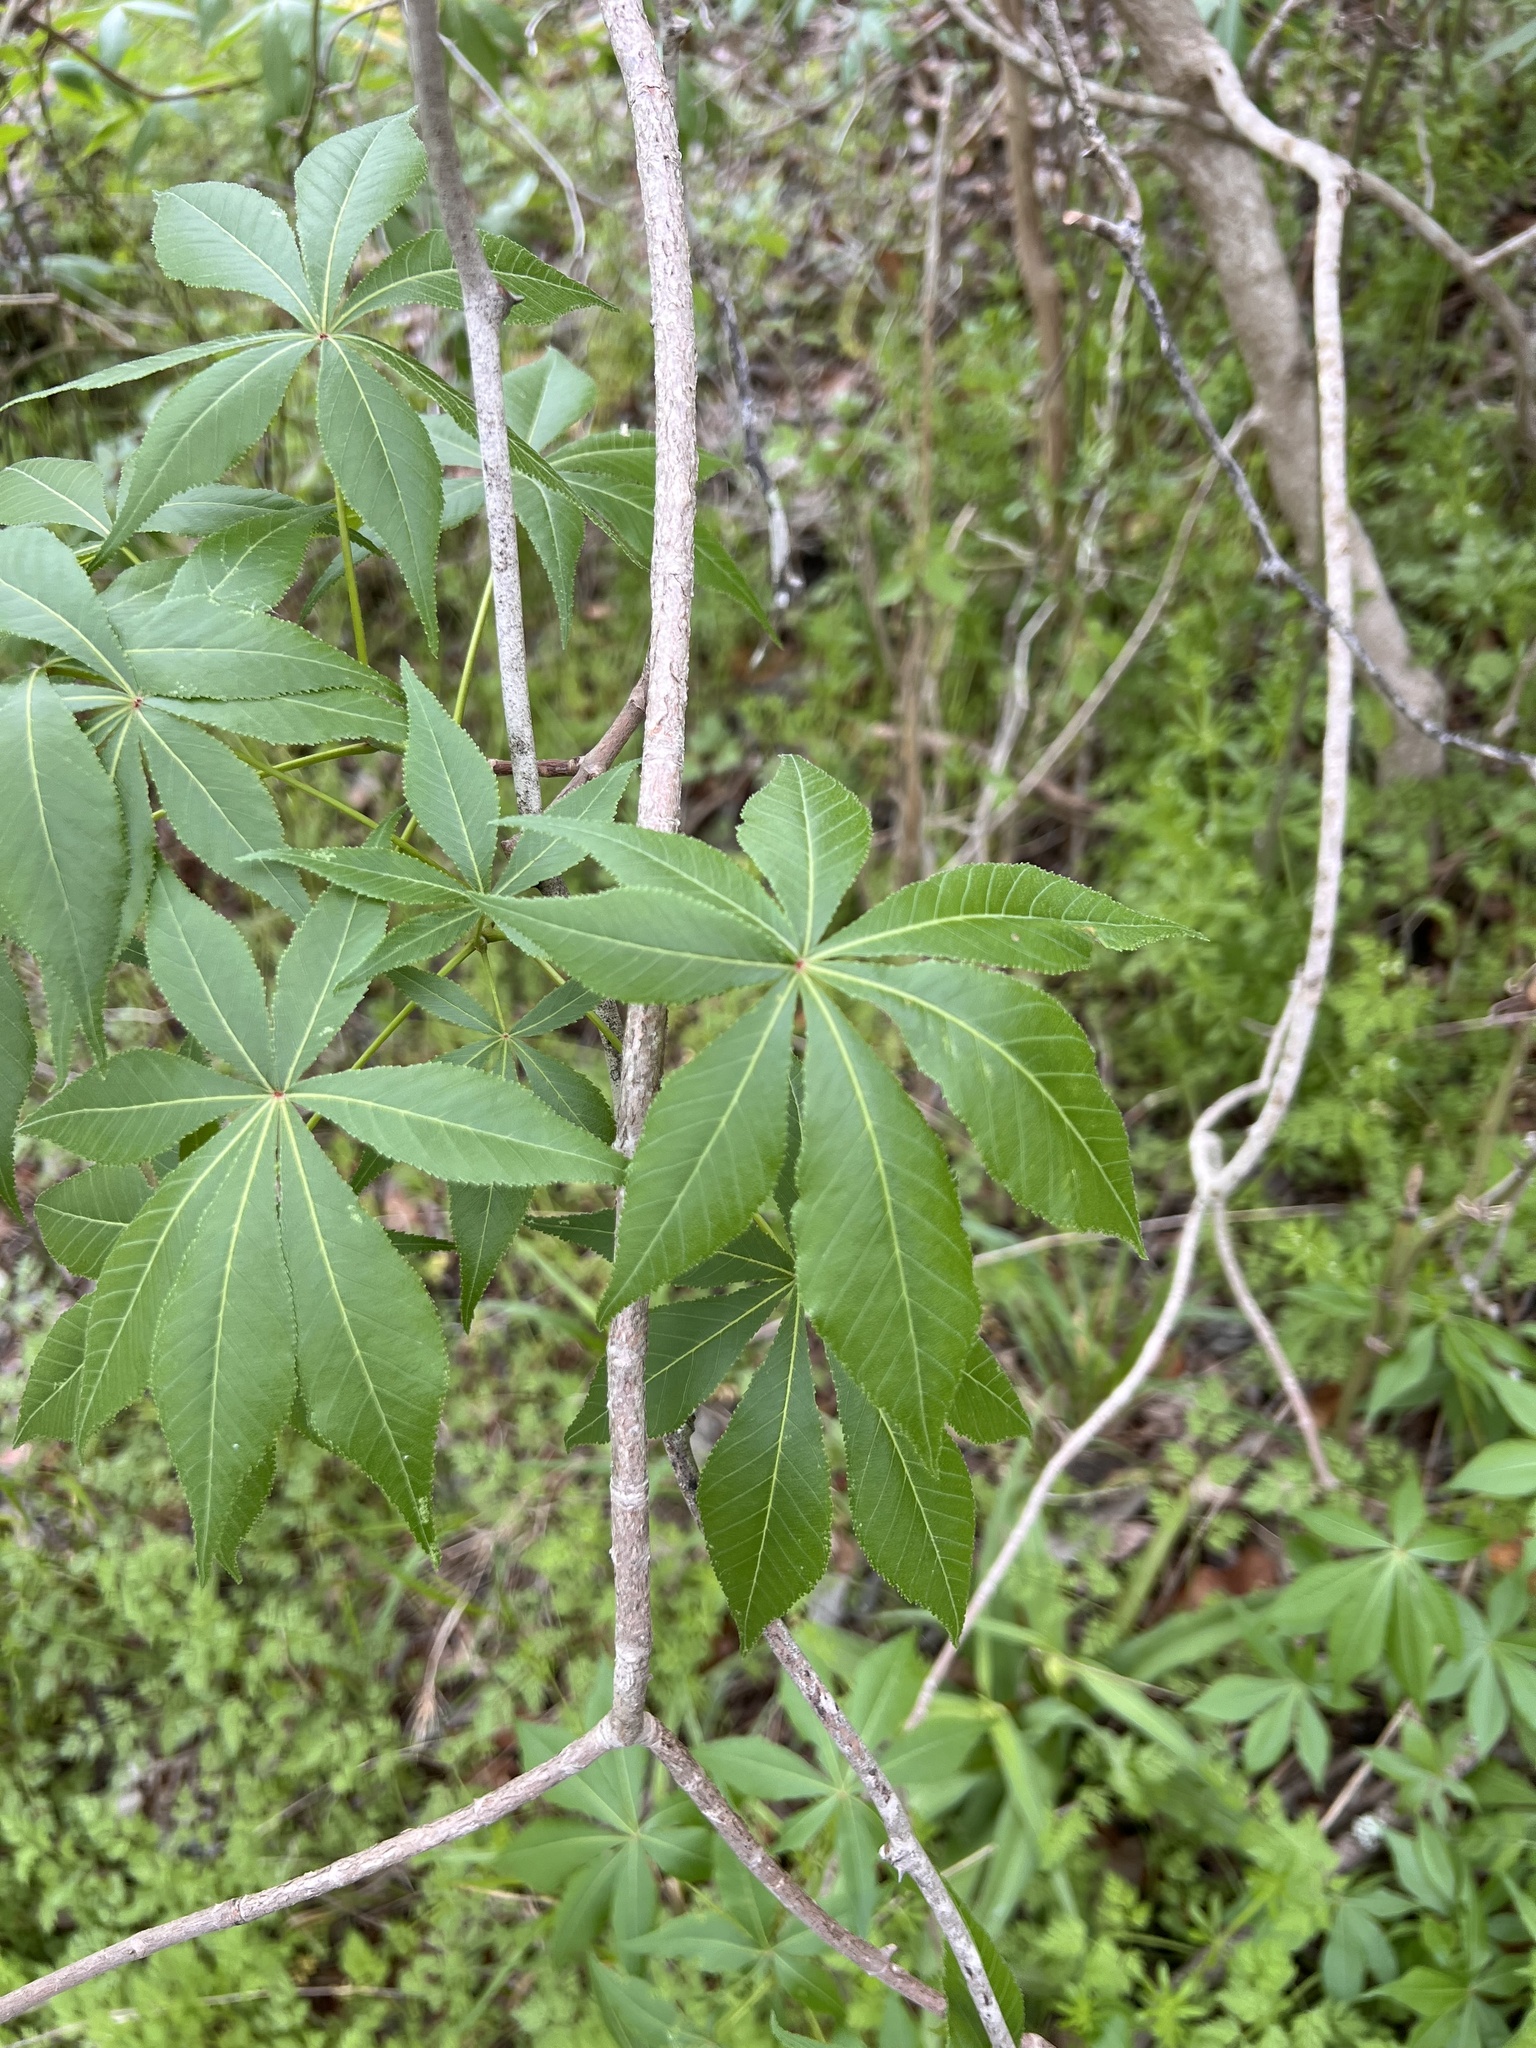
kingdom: Plantae
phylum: Tracheophyta
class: Magnoliopsida
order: Sapindales
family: Sapindaceae
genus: Aesculus
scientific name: Aesculus glabra
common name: Ohio buckeye
